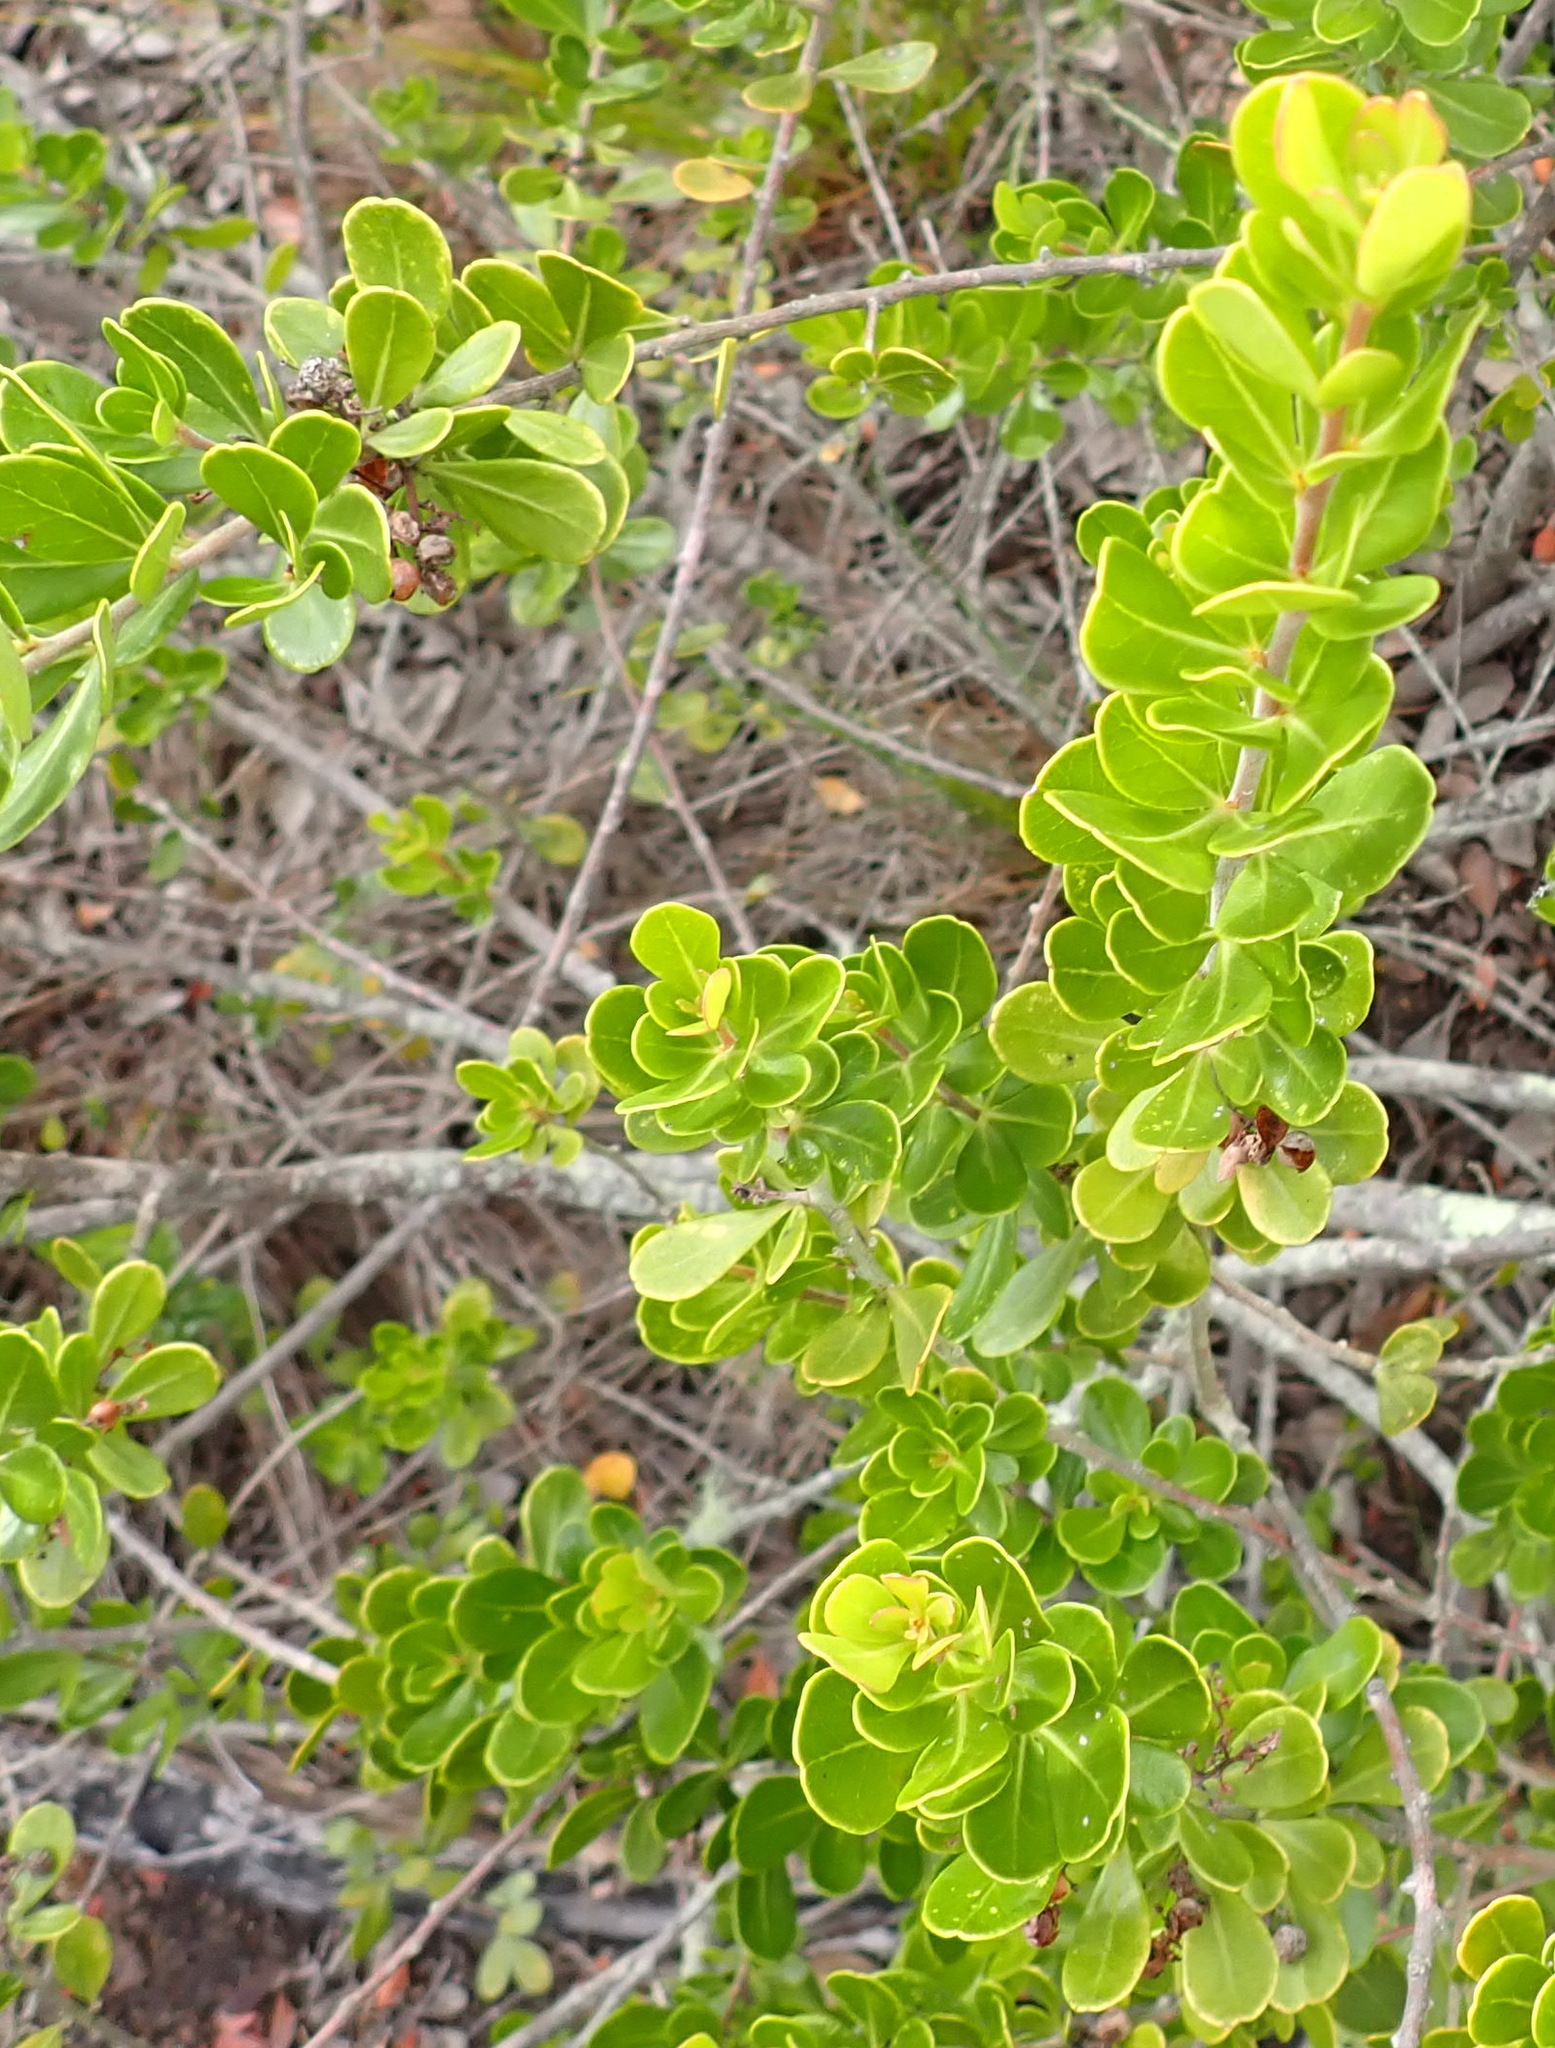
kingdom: Plantae
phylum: Tracheophyta
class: Magnoliopsida
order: Sapindales
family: Anacardiaceae
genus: Searsia
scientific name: Searsia lucida
